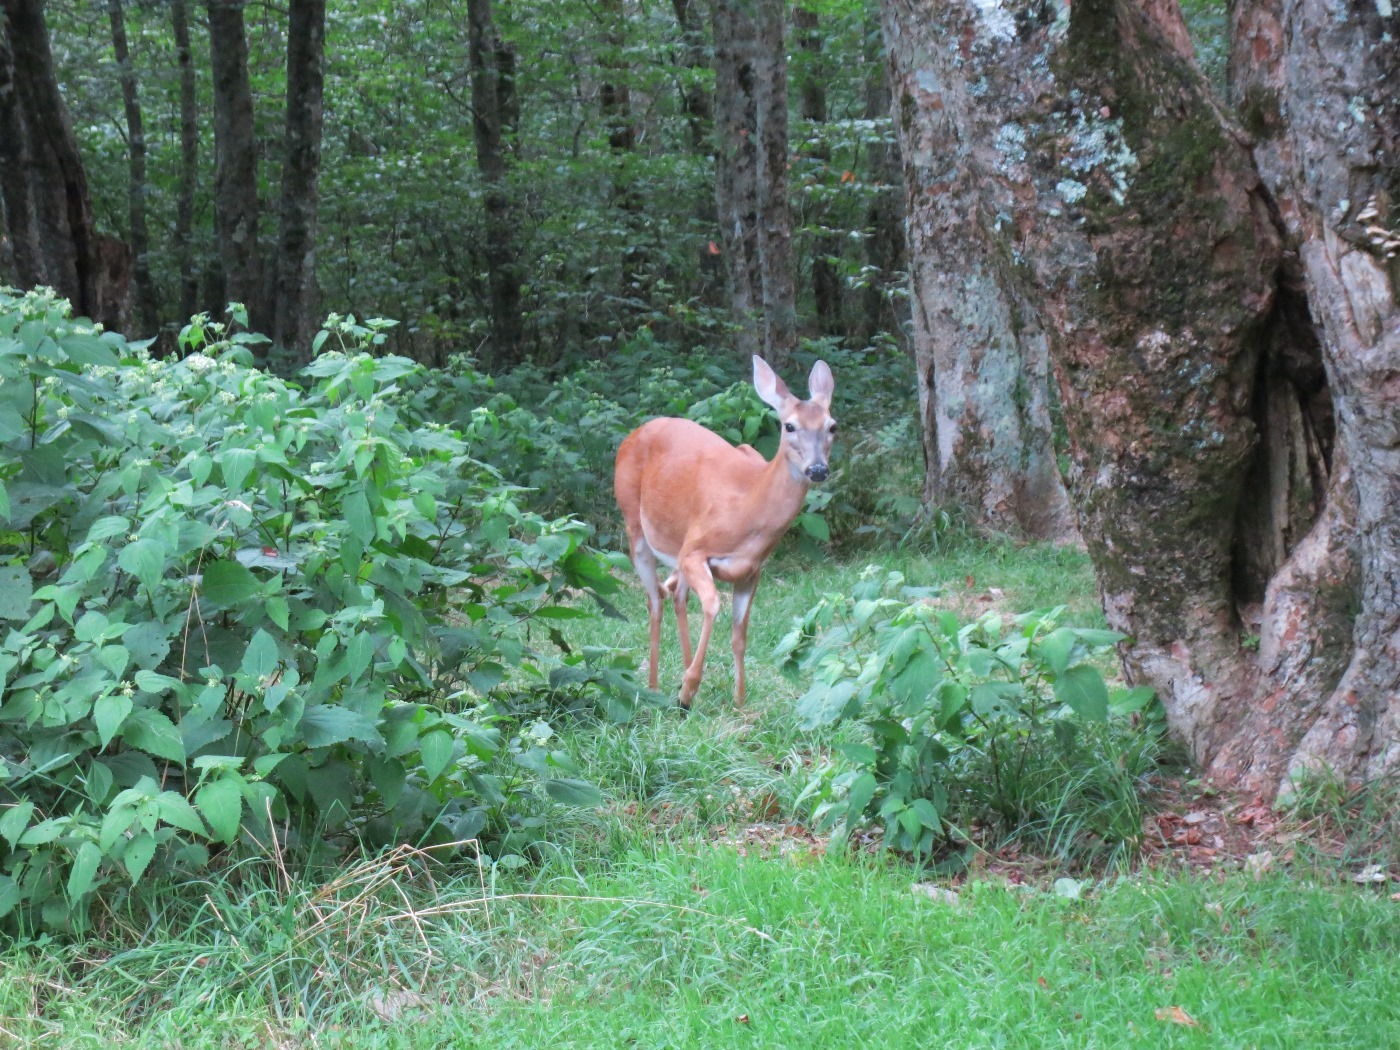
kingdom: Animalia
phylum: Chordata
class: Mammalia
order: Artiodactyla
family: Cervidae
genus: Odocoileus
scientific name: Odocoileus virginianus
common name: White-tailed deer
